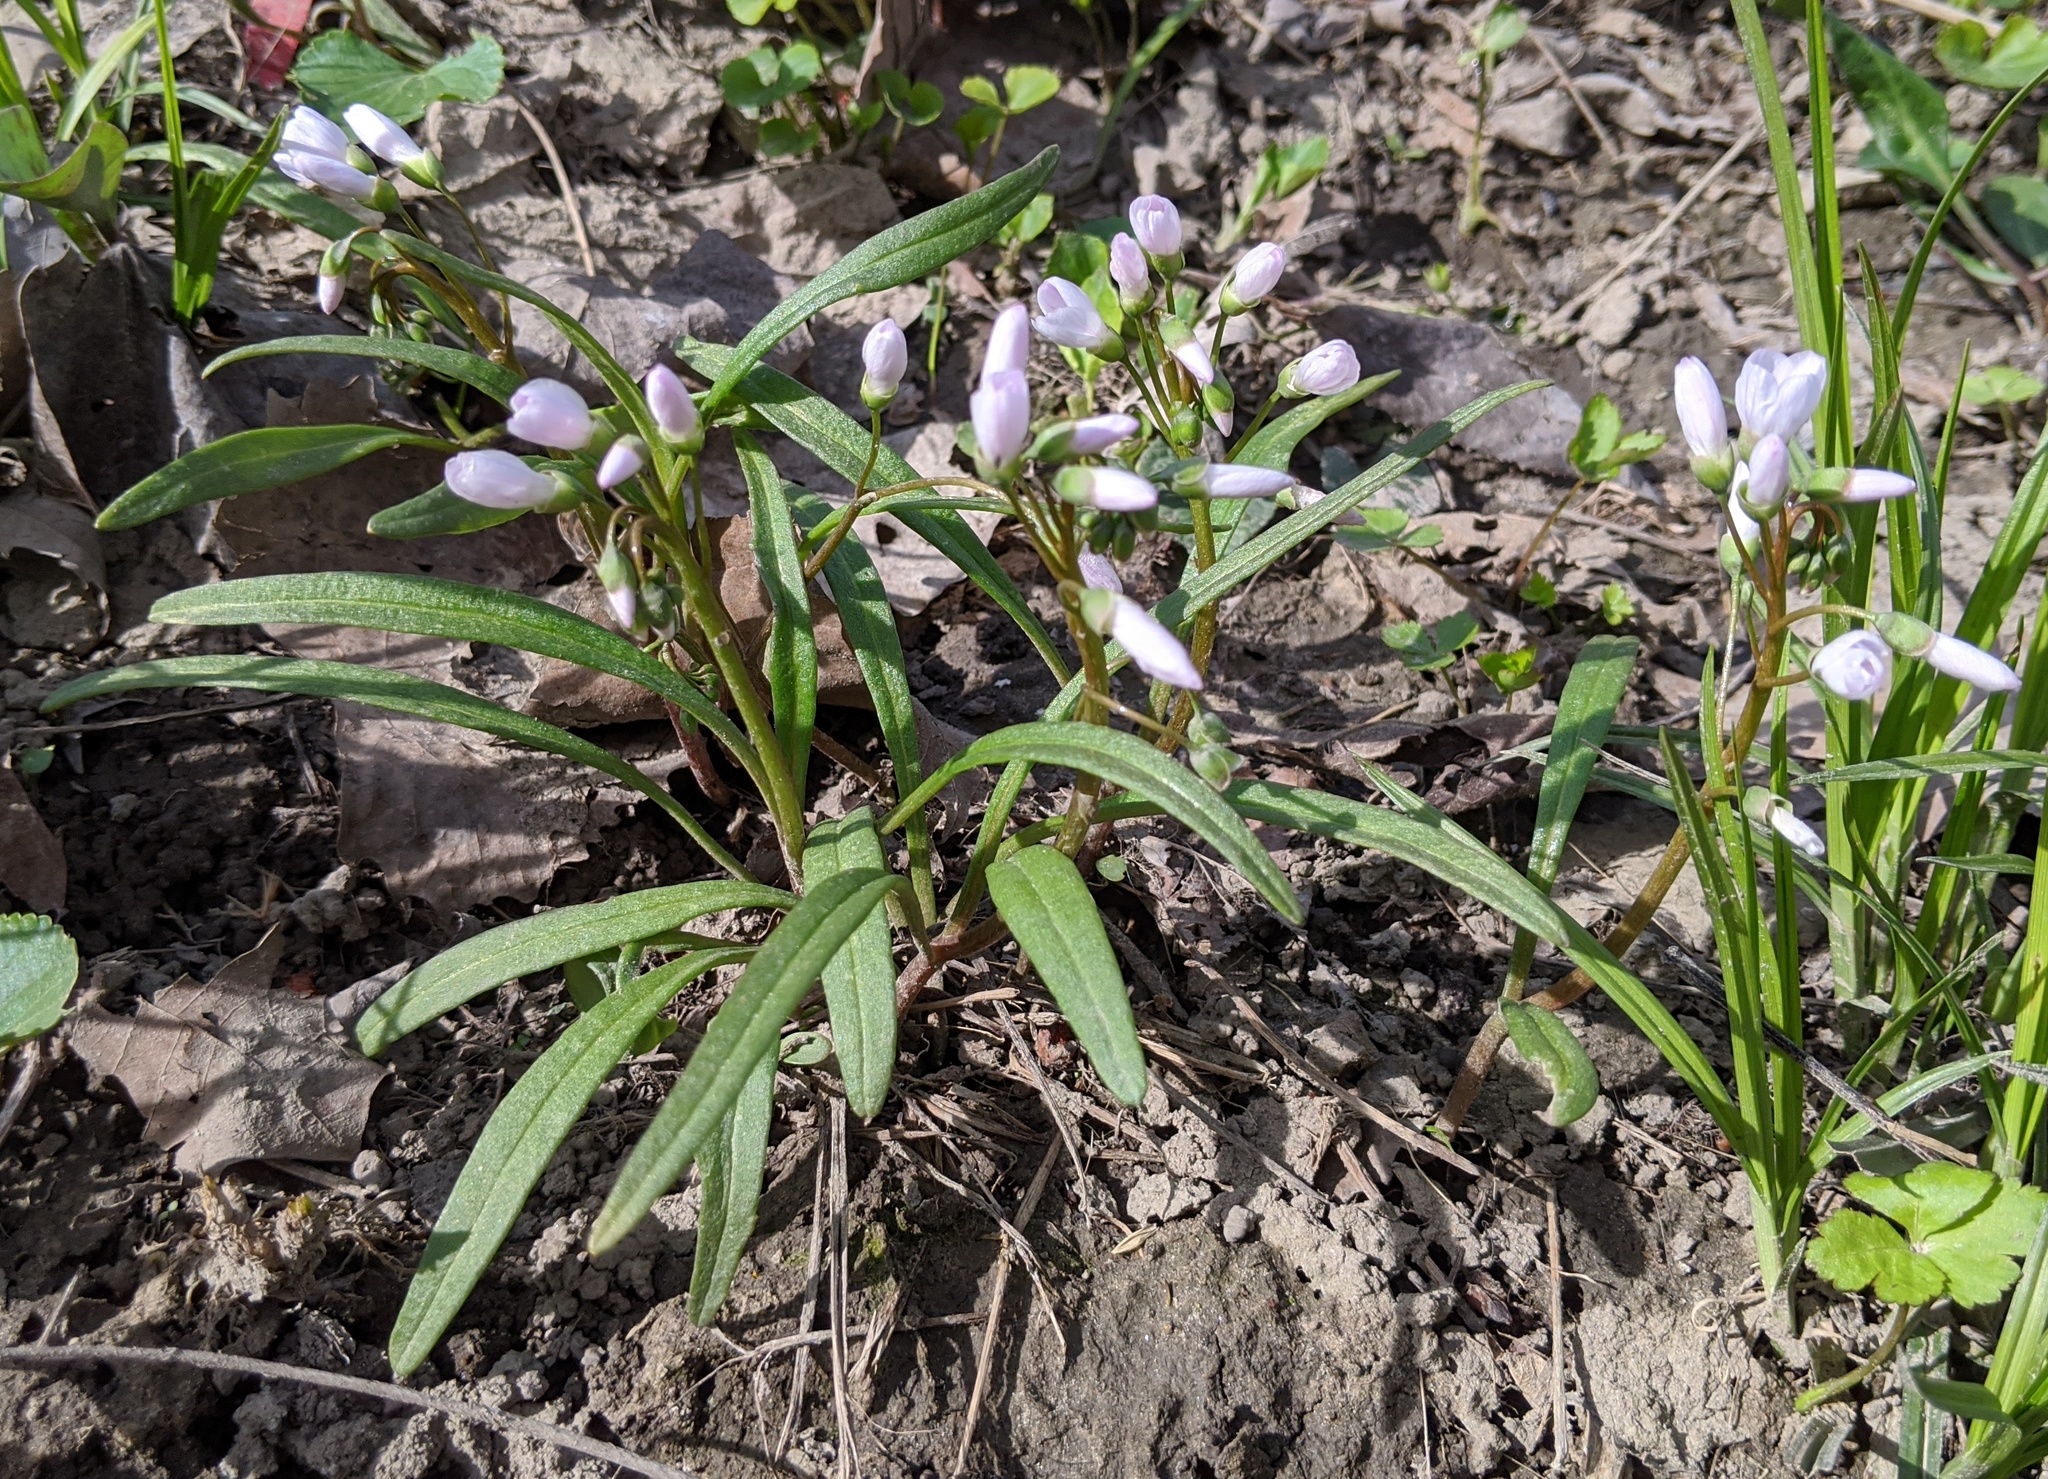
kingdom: Plantae
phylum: Tracheophyta
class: Magnoliopsida
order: Caryophyllales
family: Montiaceae
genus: Claytonia
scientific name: Claytonia virginica
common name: Virginia springbeauty
